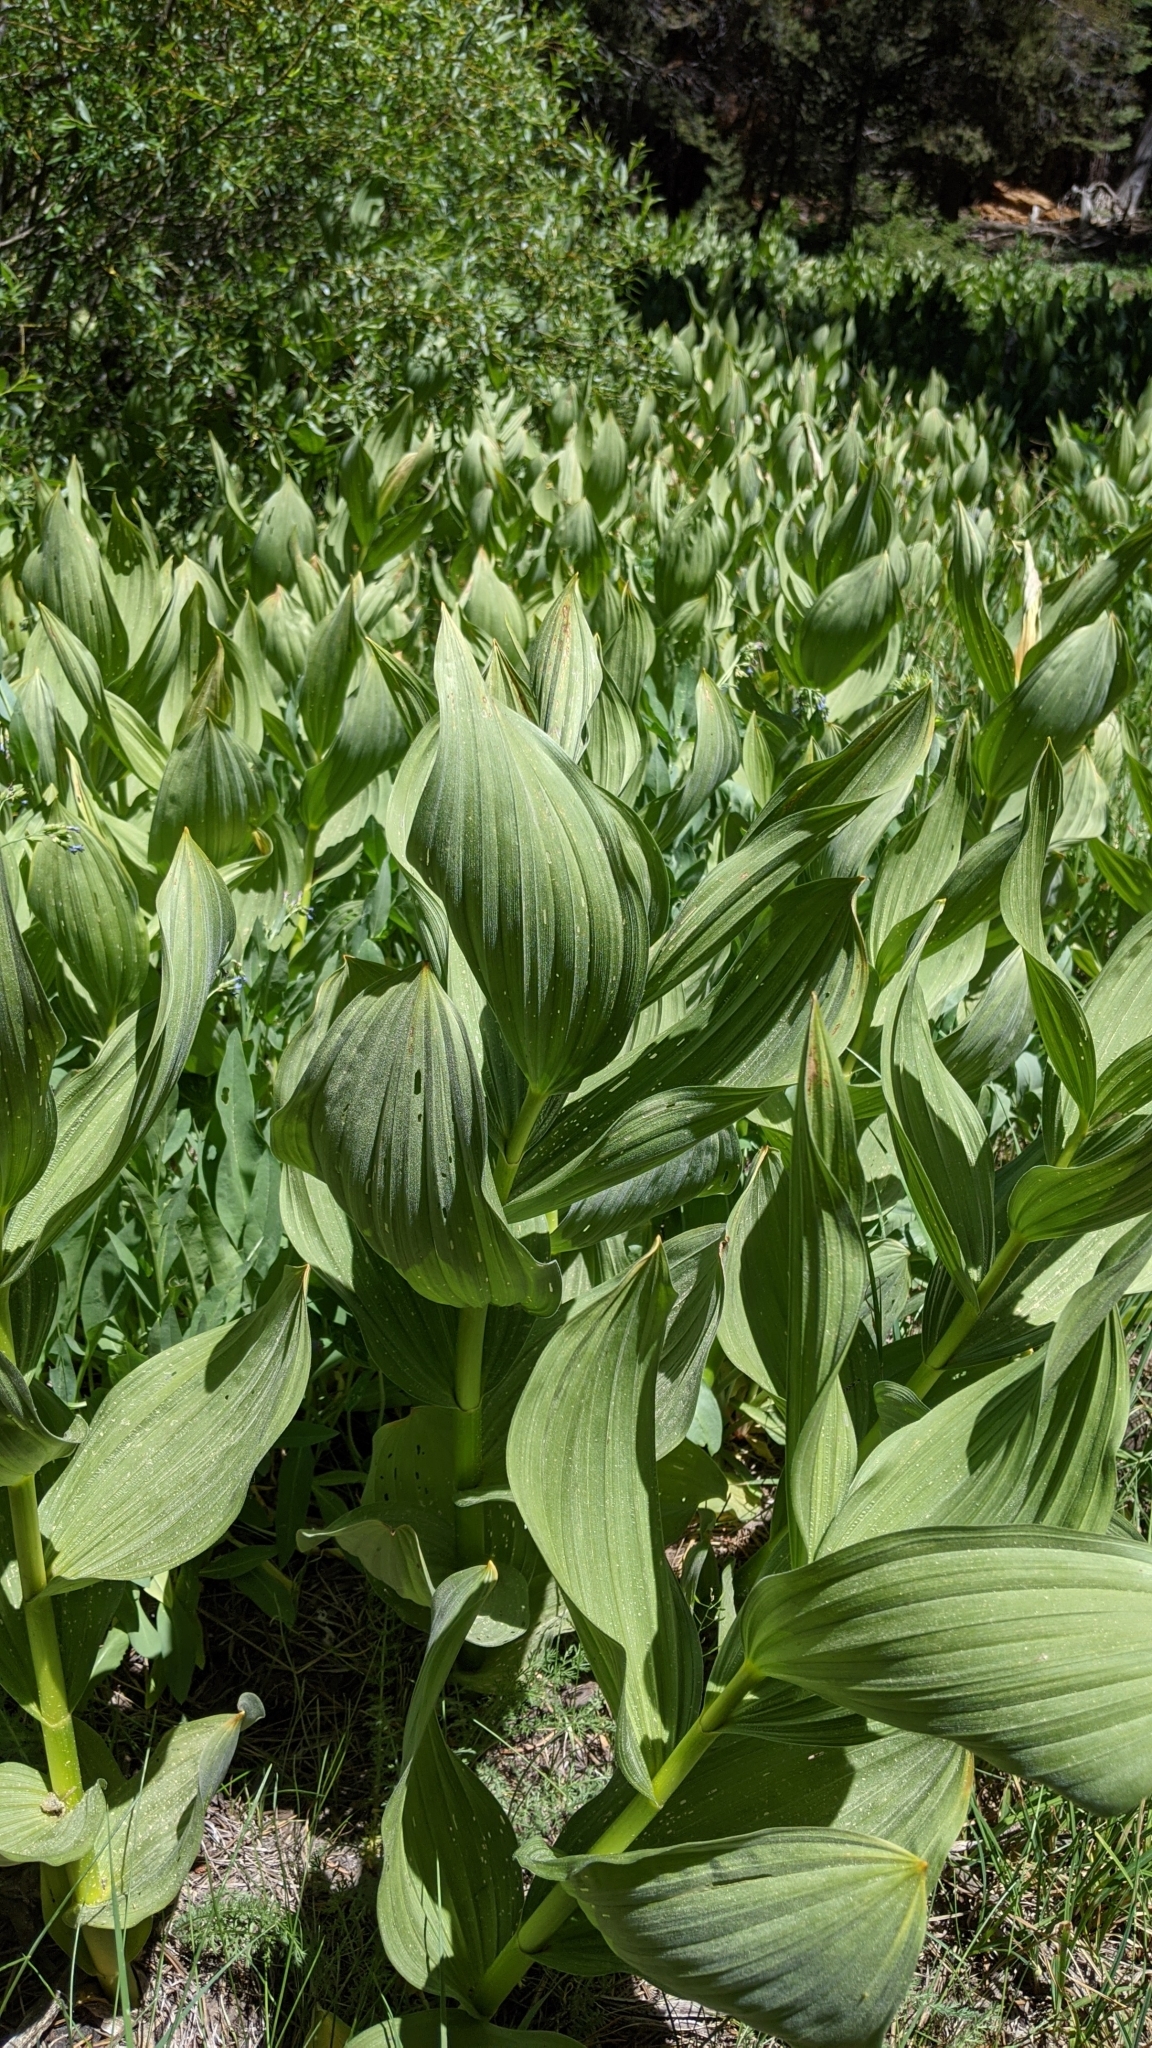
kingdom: Plantae
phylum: Tracheophyta
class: Liliopsida
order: Liliales
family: Melanthiaceae
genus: Veratrum
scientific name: Veratrum californicum
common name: California veratrum
